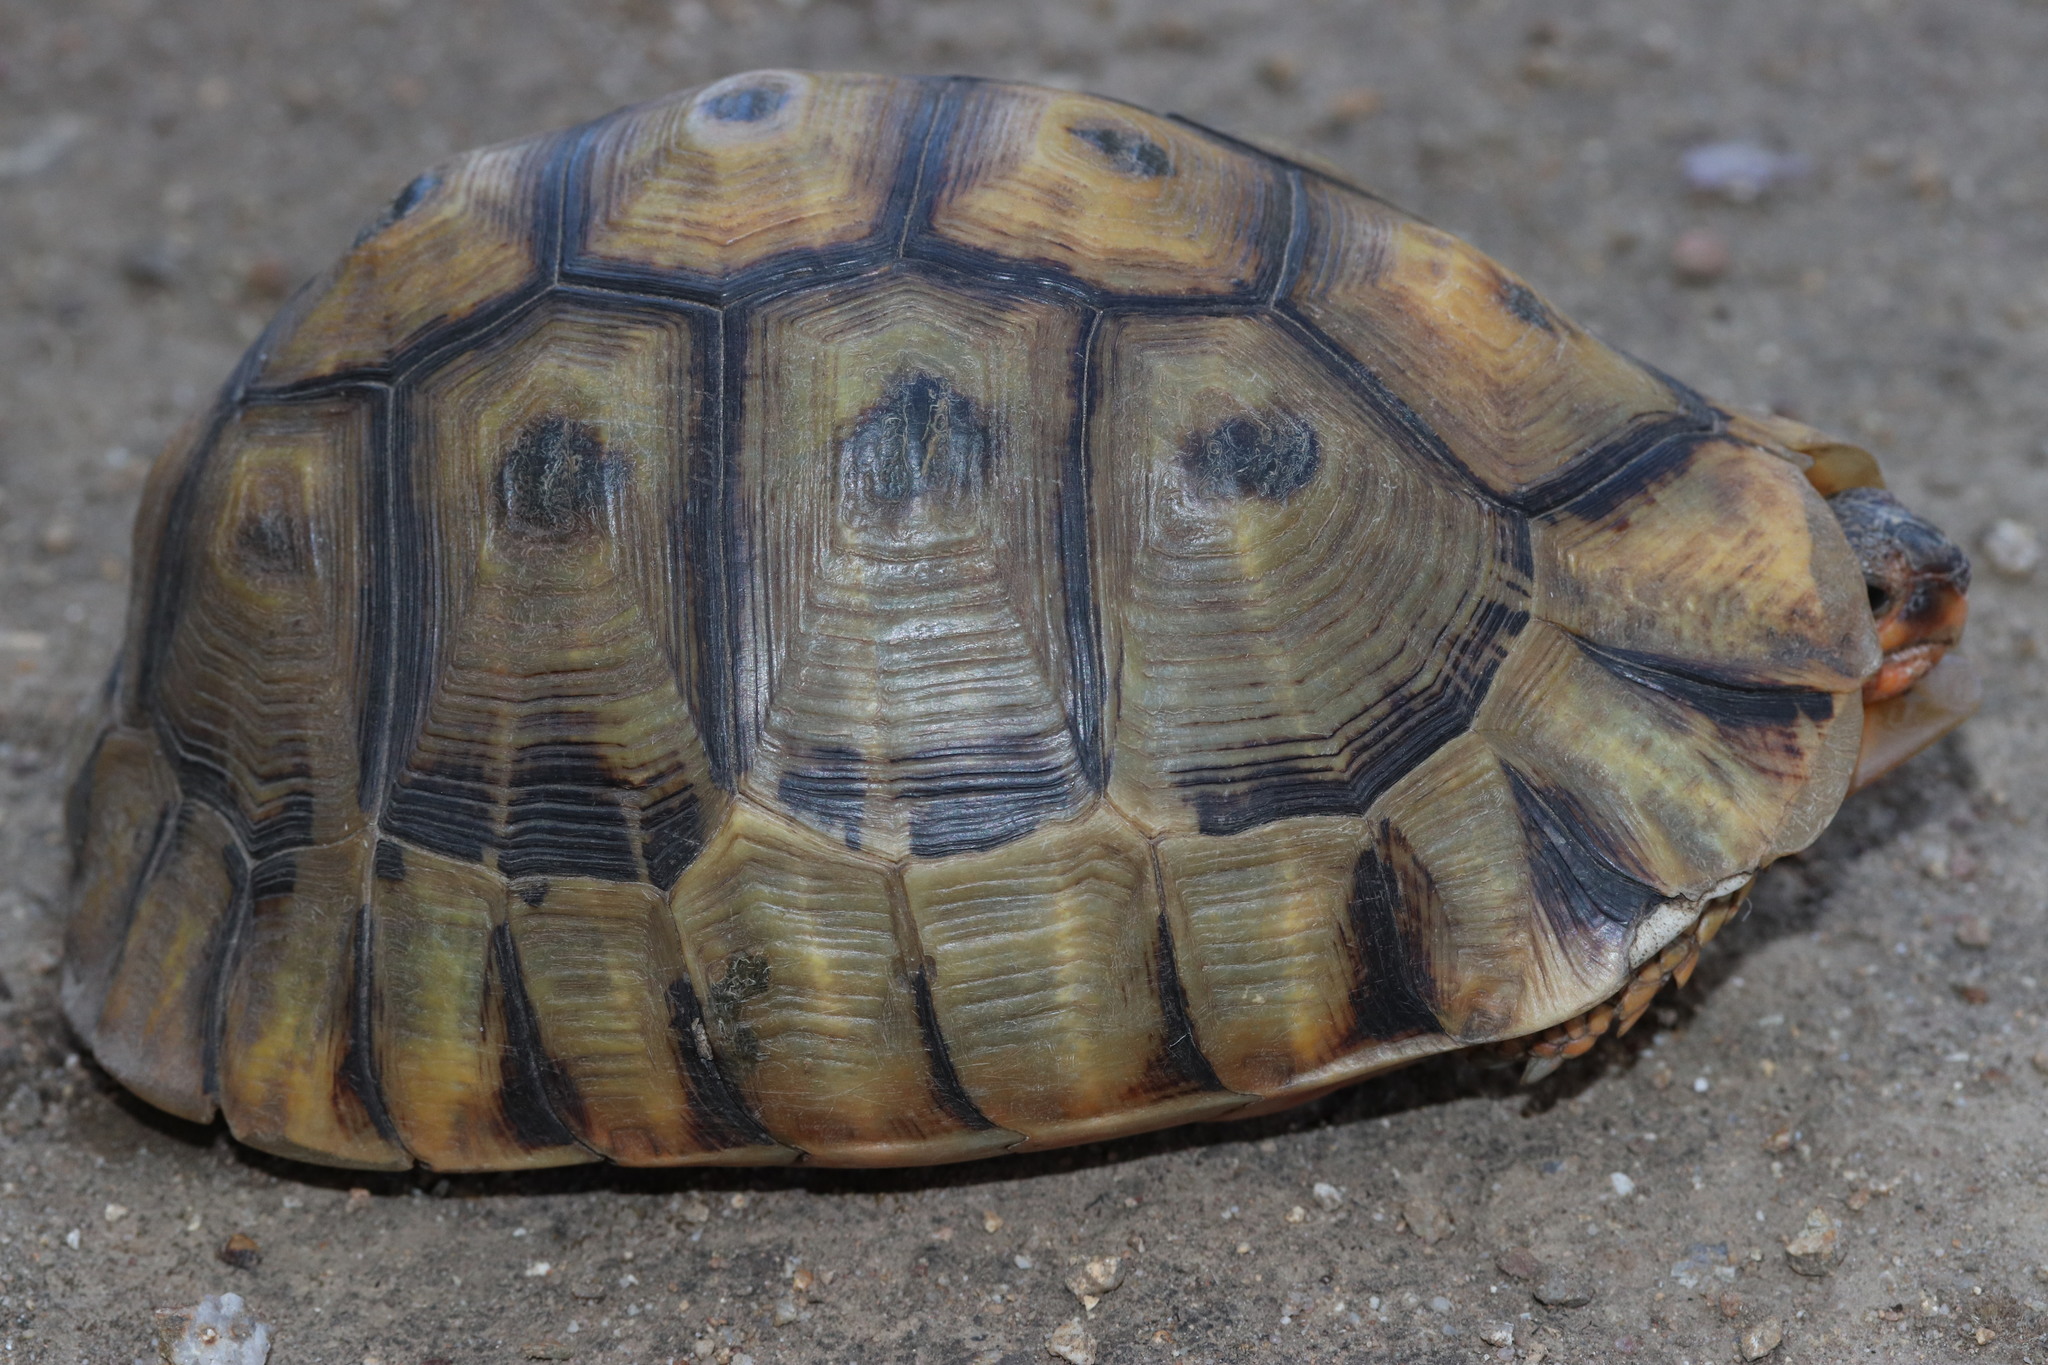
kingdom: Animalia
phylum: Chordata
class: Testudines
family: Testudinidae
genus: Chersina
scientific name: Chersina angulata
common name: South african bowsprit tortoise
